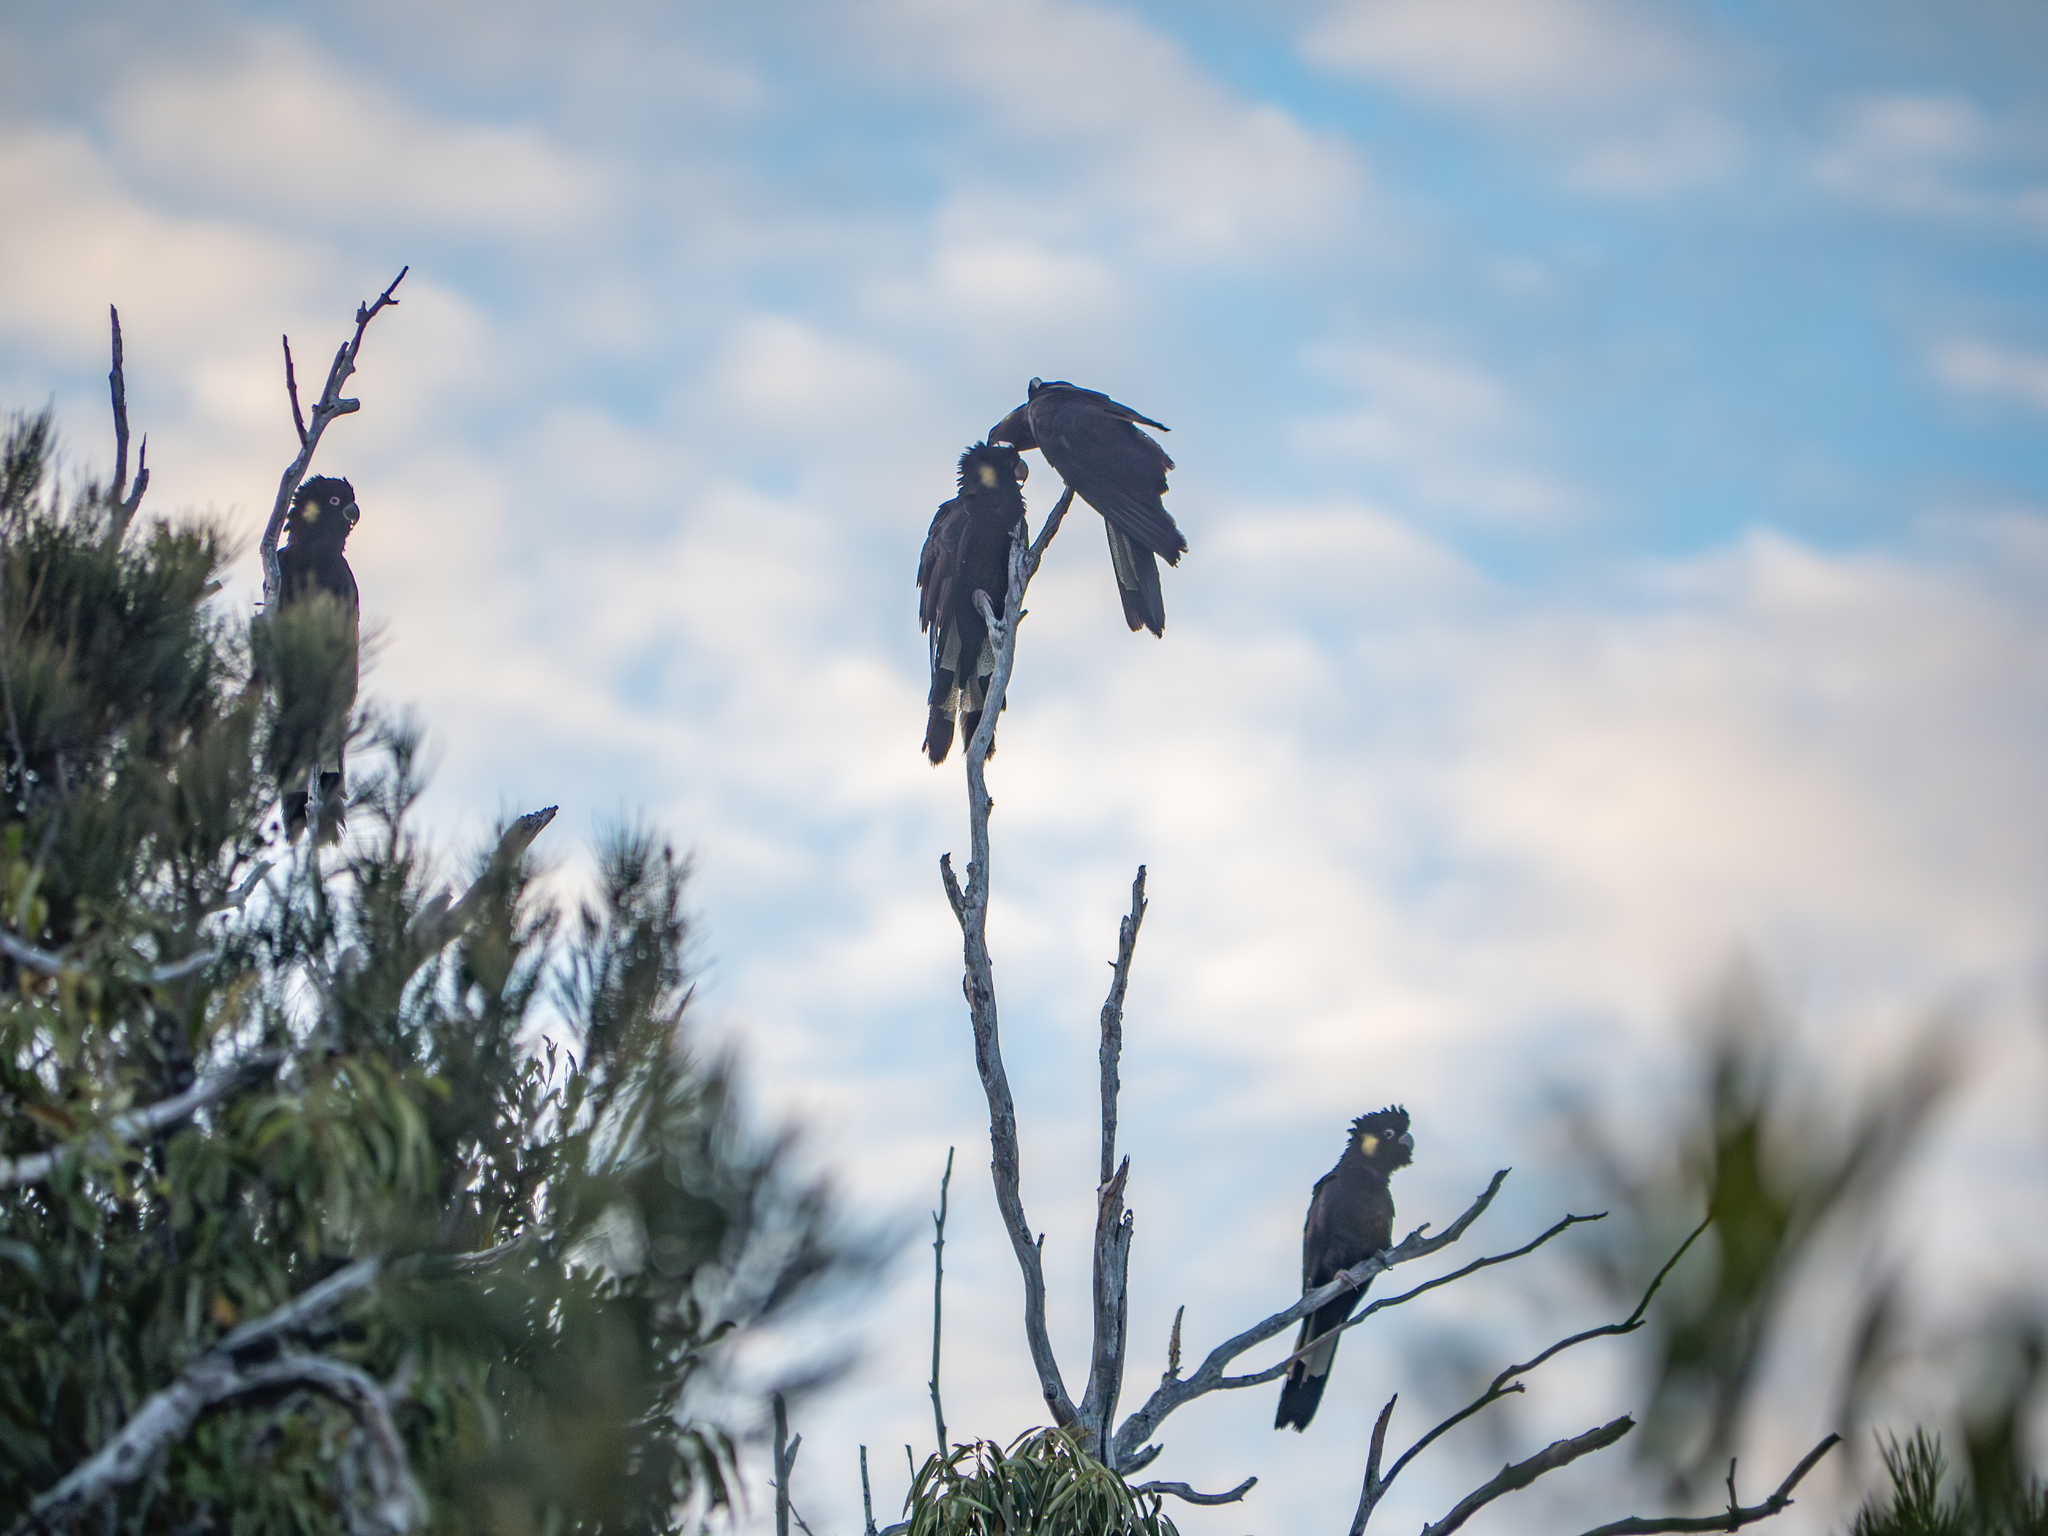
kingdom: Animalia
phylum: Chordata
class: Aves
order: Psittaciformes
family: Cacatuidae
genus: Zanda
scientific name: Zanda funerea
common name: Yellow-tailed black-cockatoo
